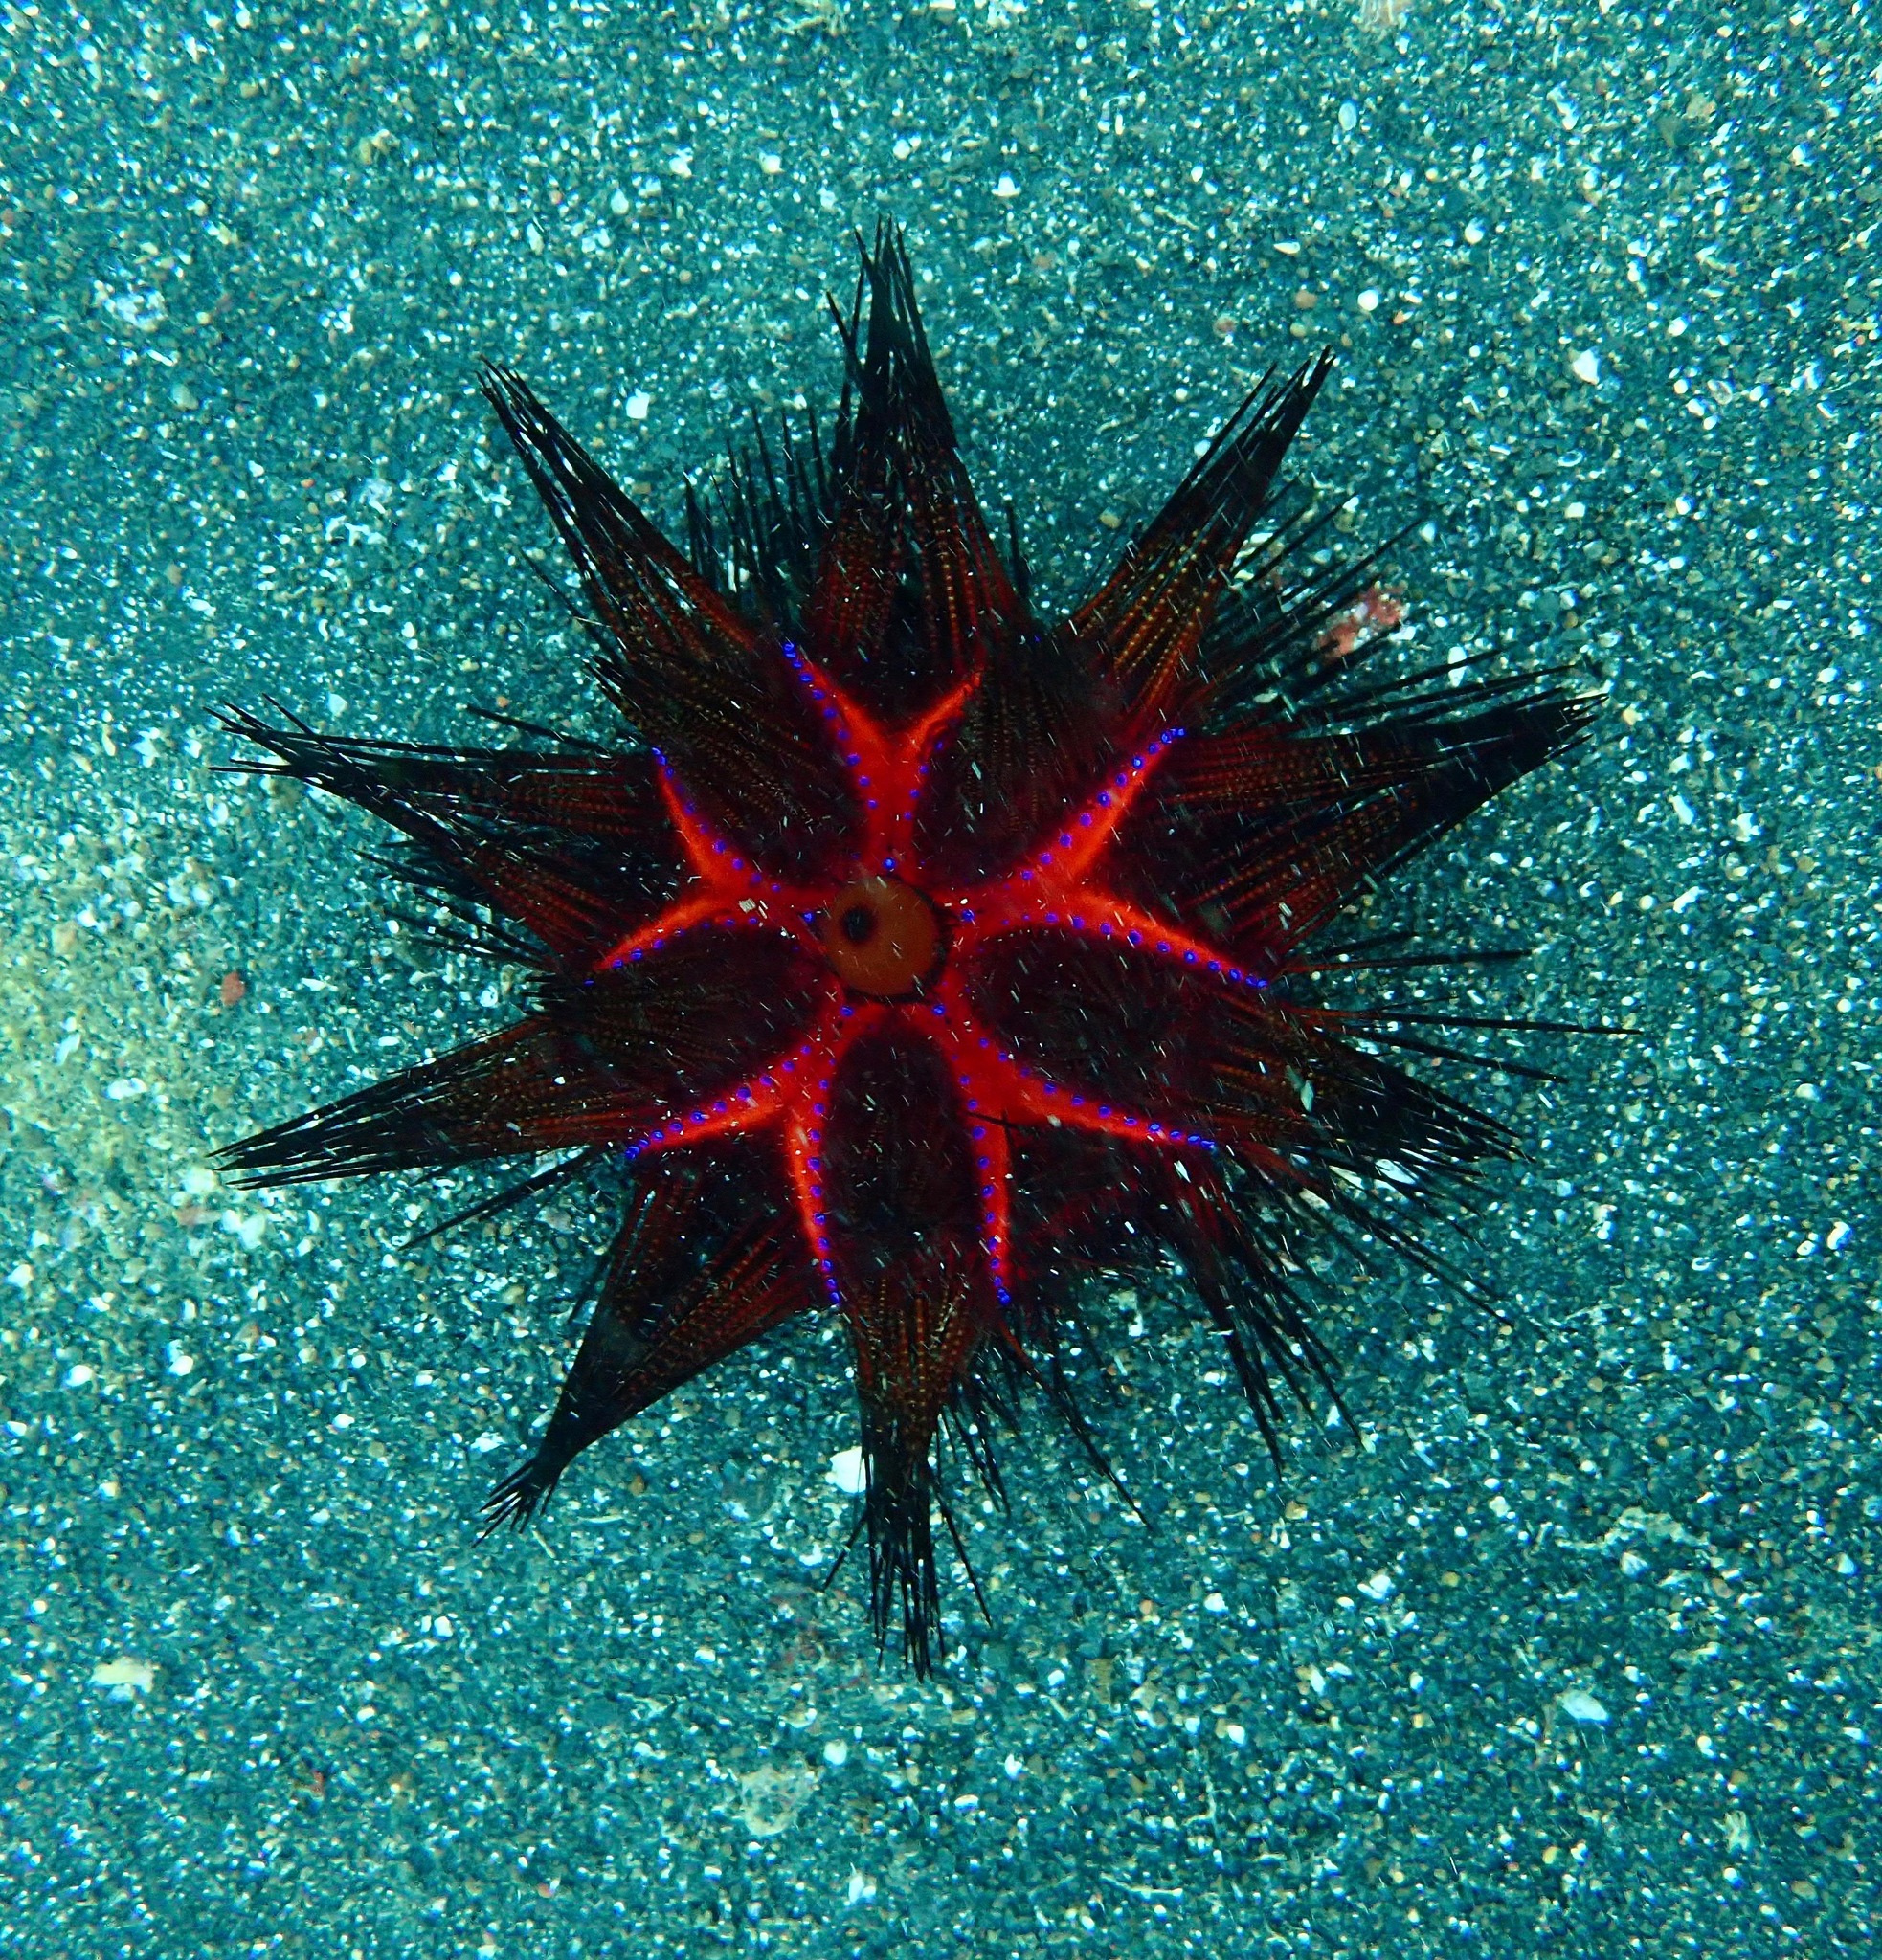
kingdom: Animalia
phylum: Echinodermata
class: Echinoidea
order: Diadematoida
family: Diadematidae
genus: Astropyga
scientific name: Astropyga radiata
